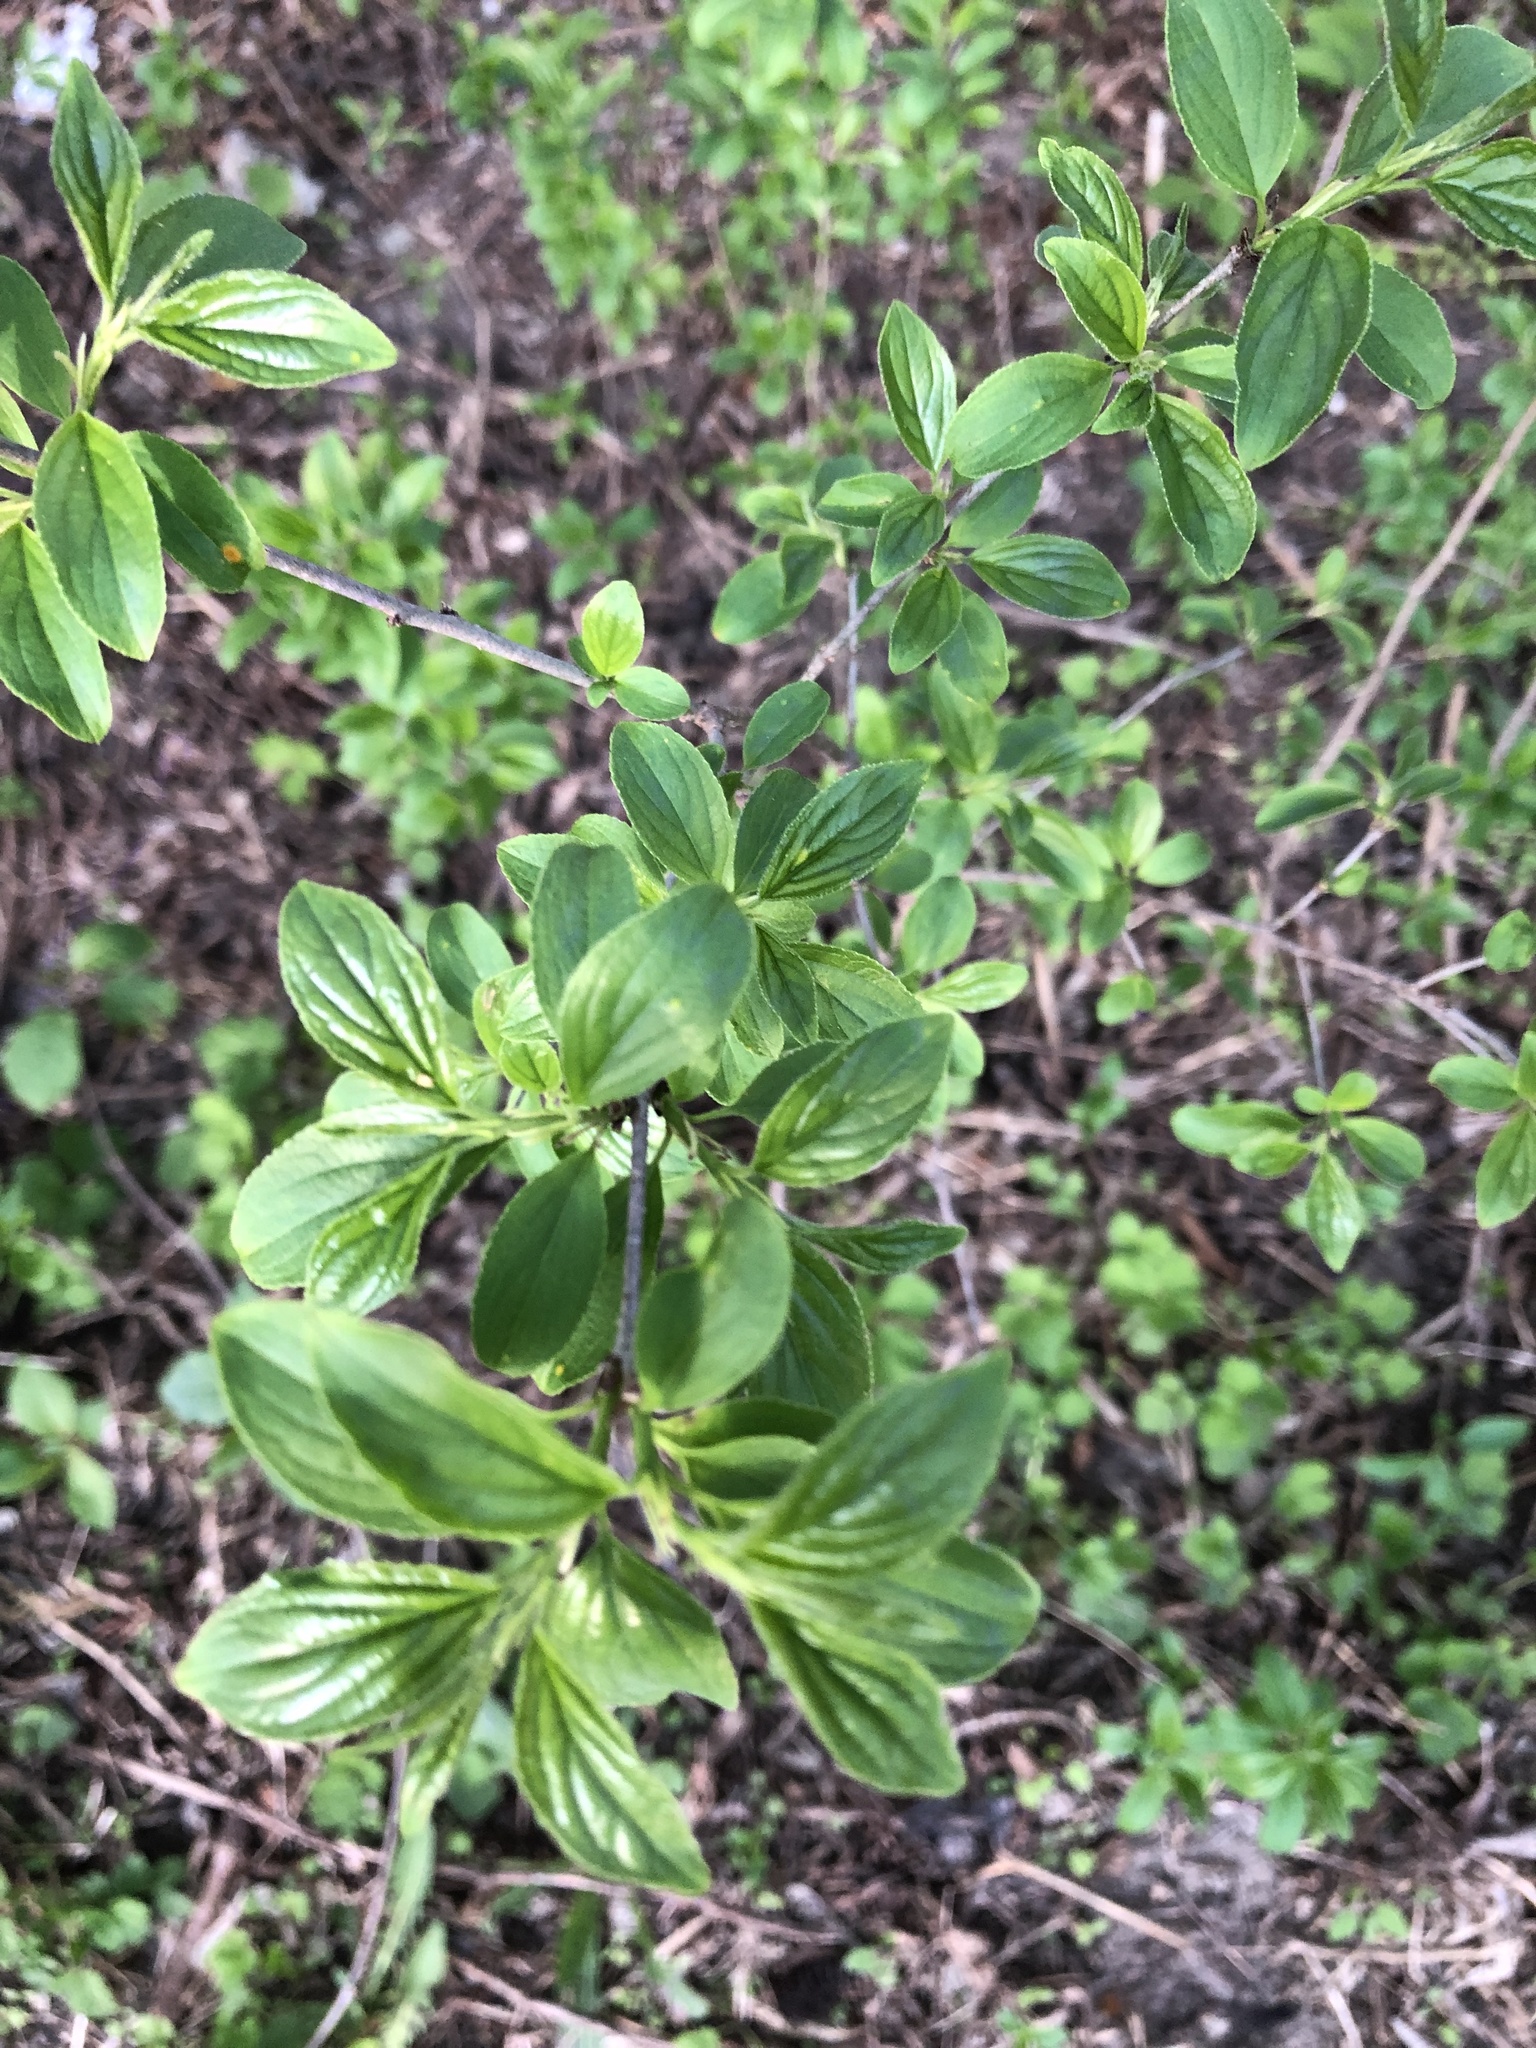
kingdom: Plantae
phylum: Tracheophyta
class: Magnoliopsida
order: Rosales
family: Rhamnaceae
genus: Rhamnus
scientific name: Rhamnus cathartica
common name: Common buckthorn
